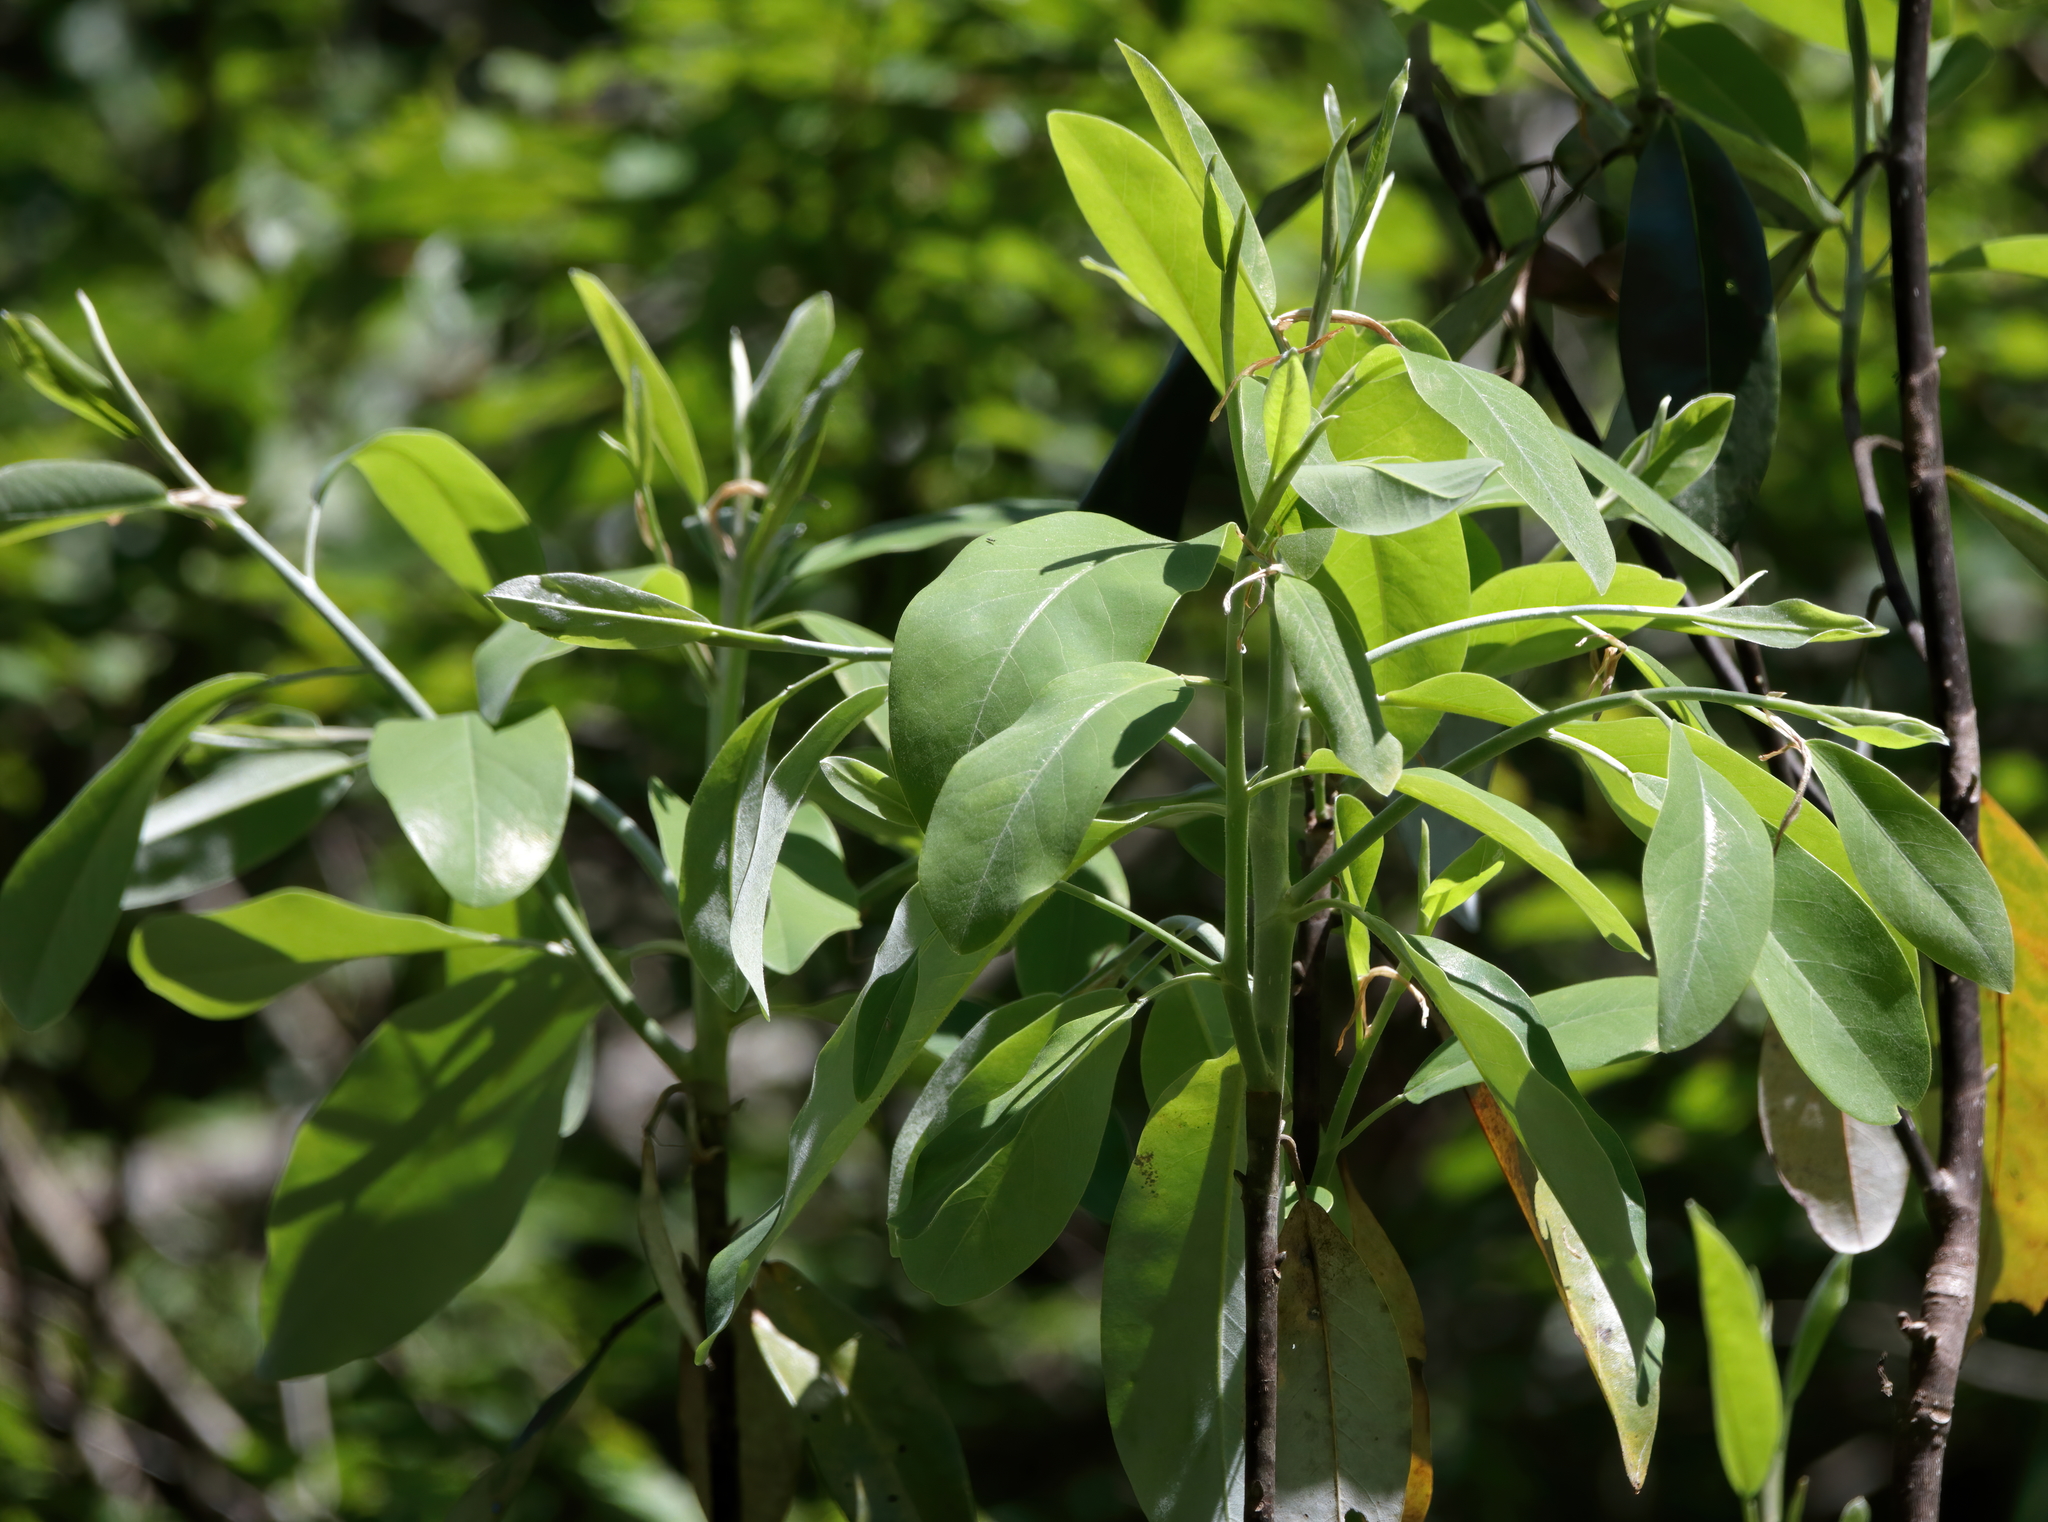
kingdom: Plantae
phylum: Tracheophyta
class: Magnoliopsida
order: Magnoliales
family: Magnoliaceae
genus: Magnolia
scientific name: Magnolia virginiana
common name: Swamp bay
